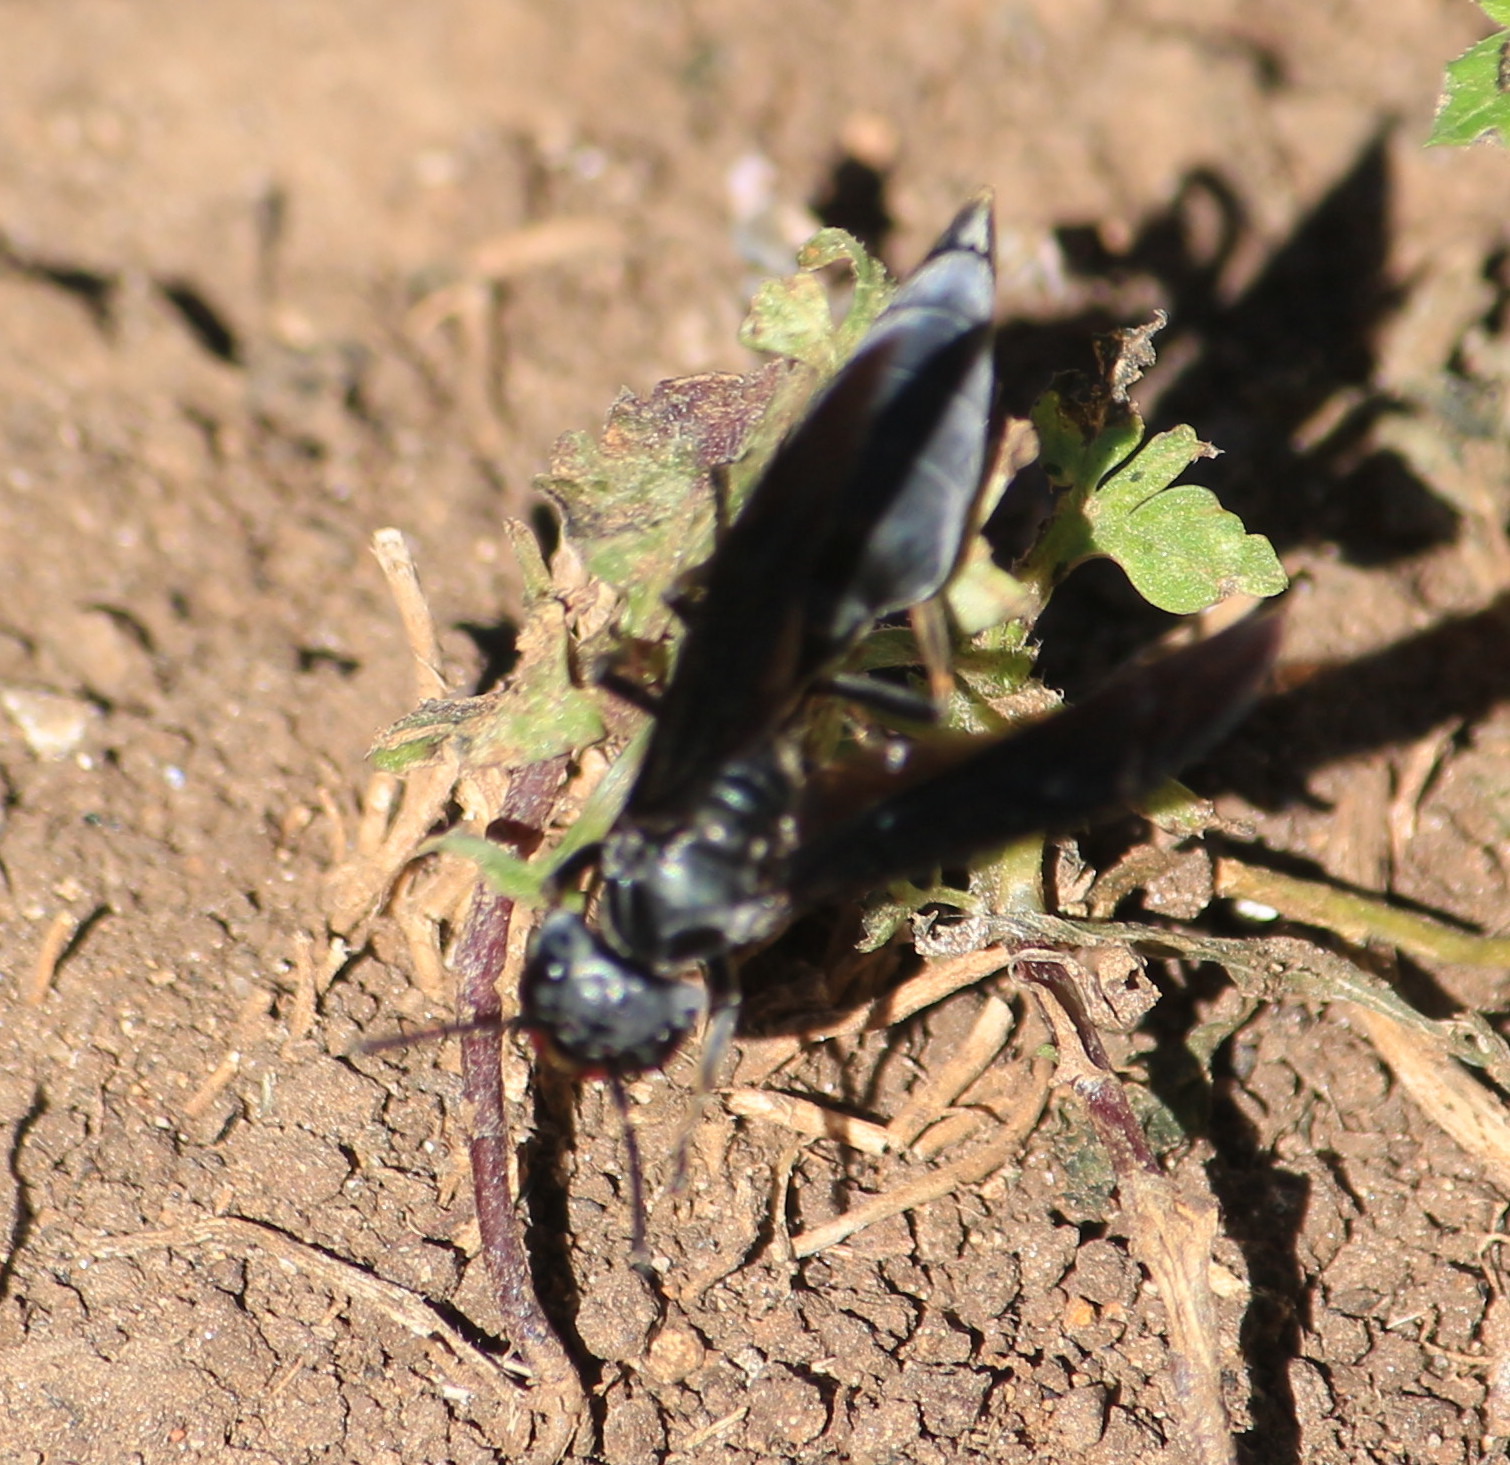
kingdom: Animalia
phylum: Arthropoda
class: Insecta
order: Hymenoptera
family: Vespidae
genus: Synoeca
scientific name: Synoeca septentrionalis
